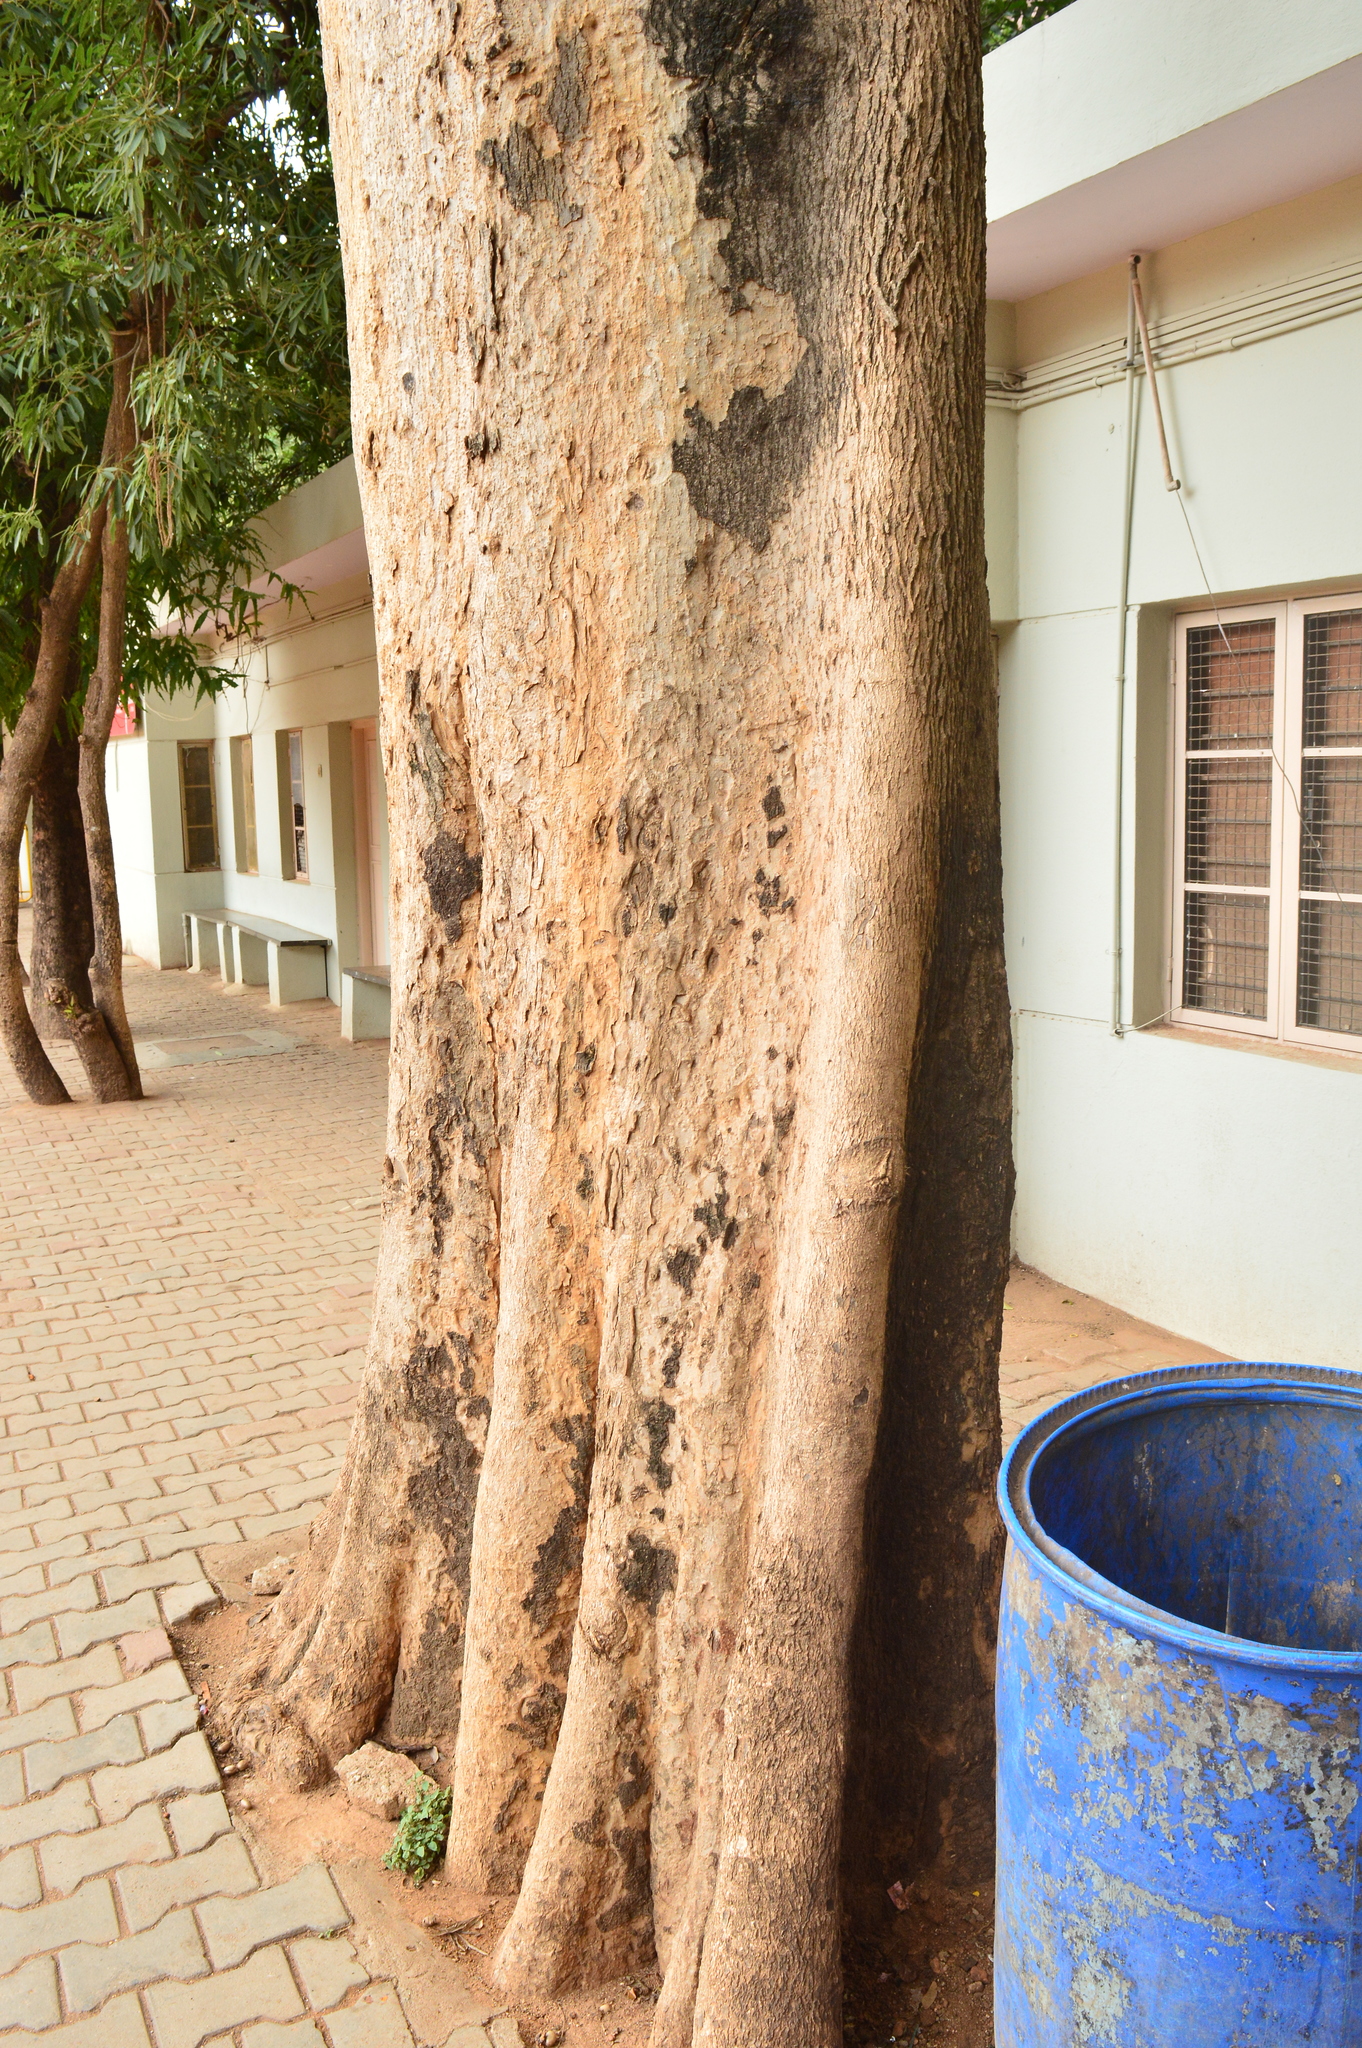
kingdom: Plantae
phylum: Tracheophyta
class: Magnoliopsida
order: Lamiales
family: Bignoniaceae
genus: Spathodea
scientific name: Spathodea campanulata
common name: African tuliptree
